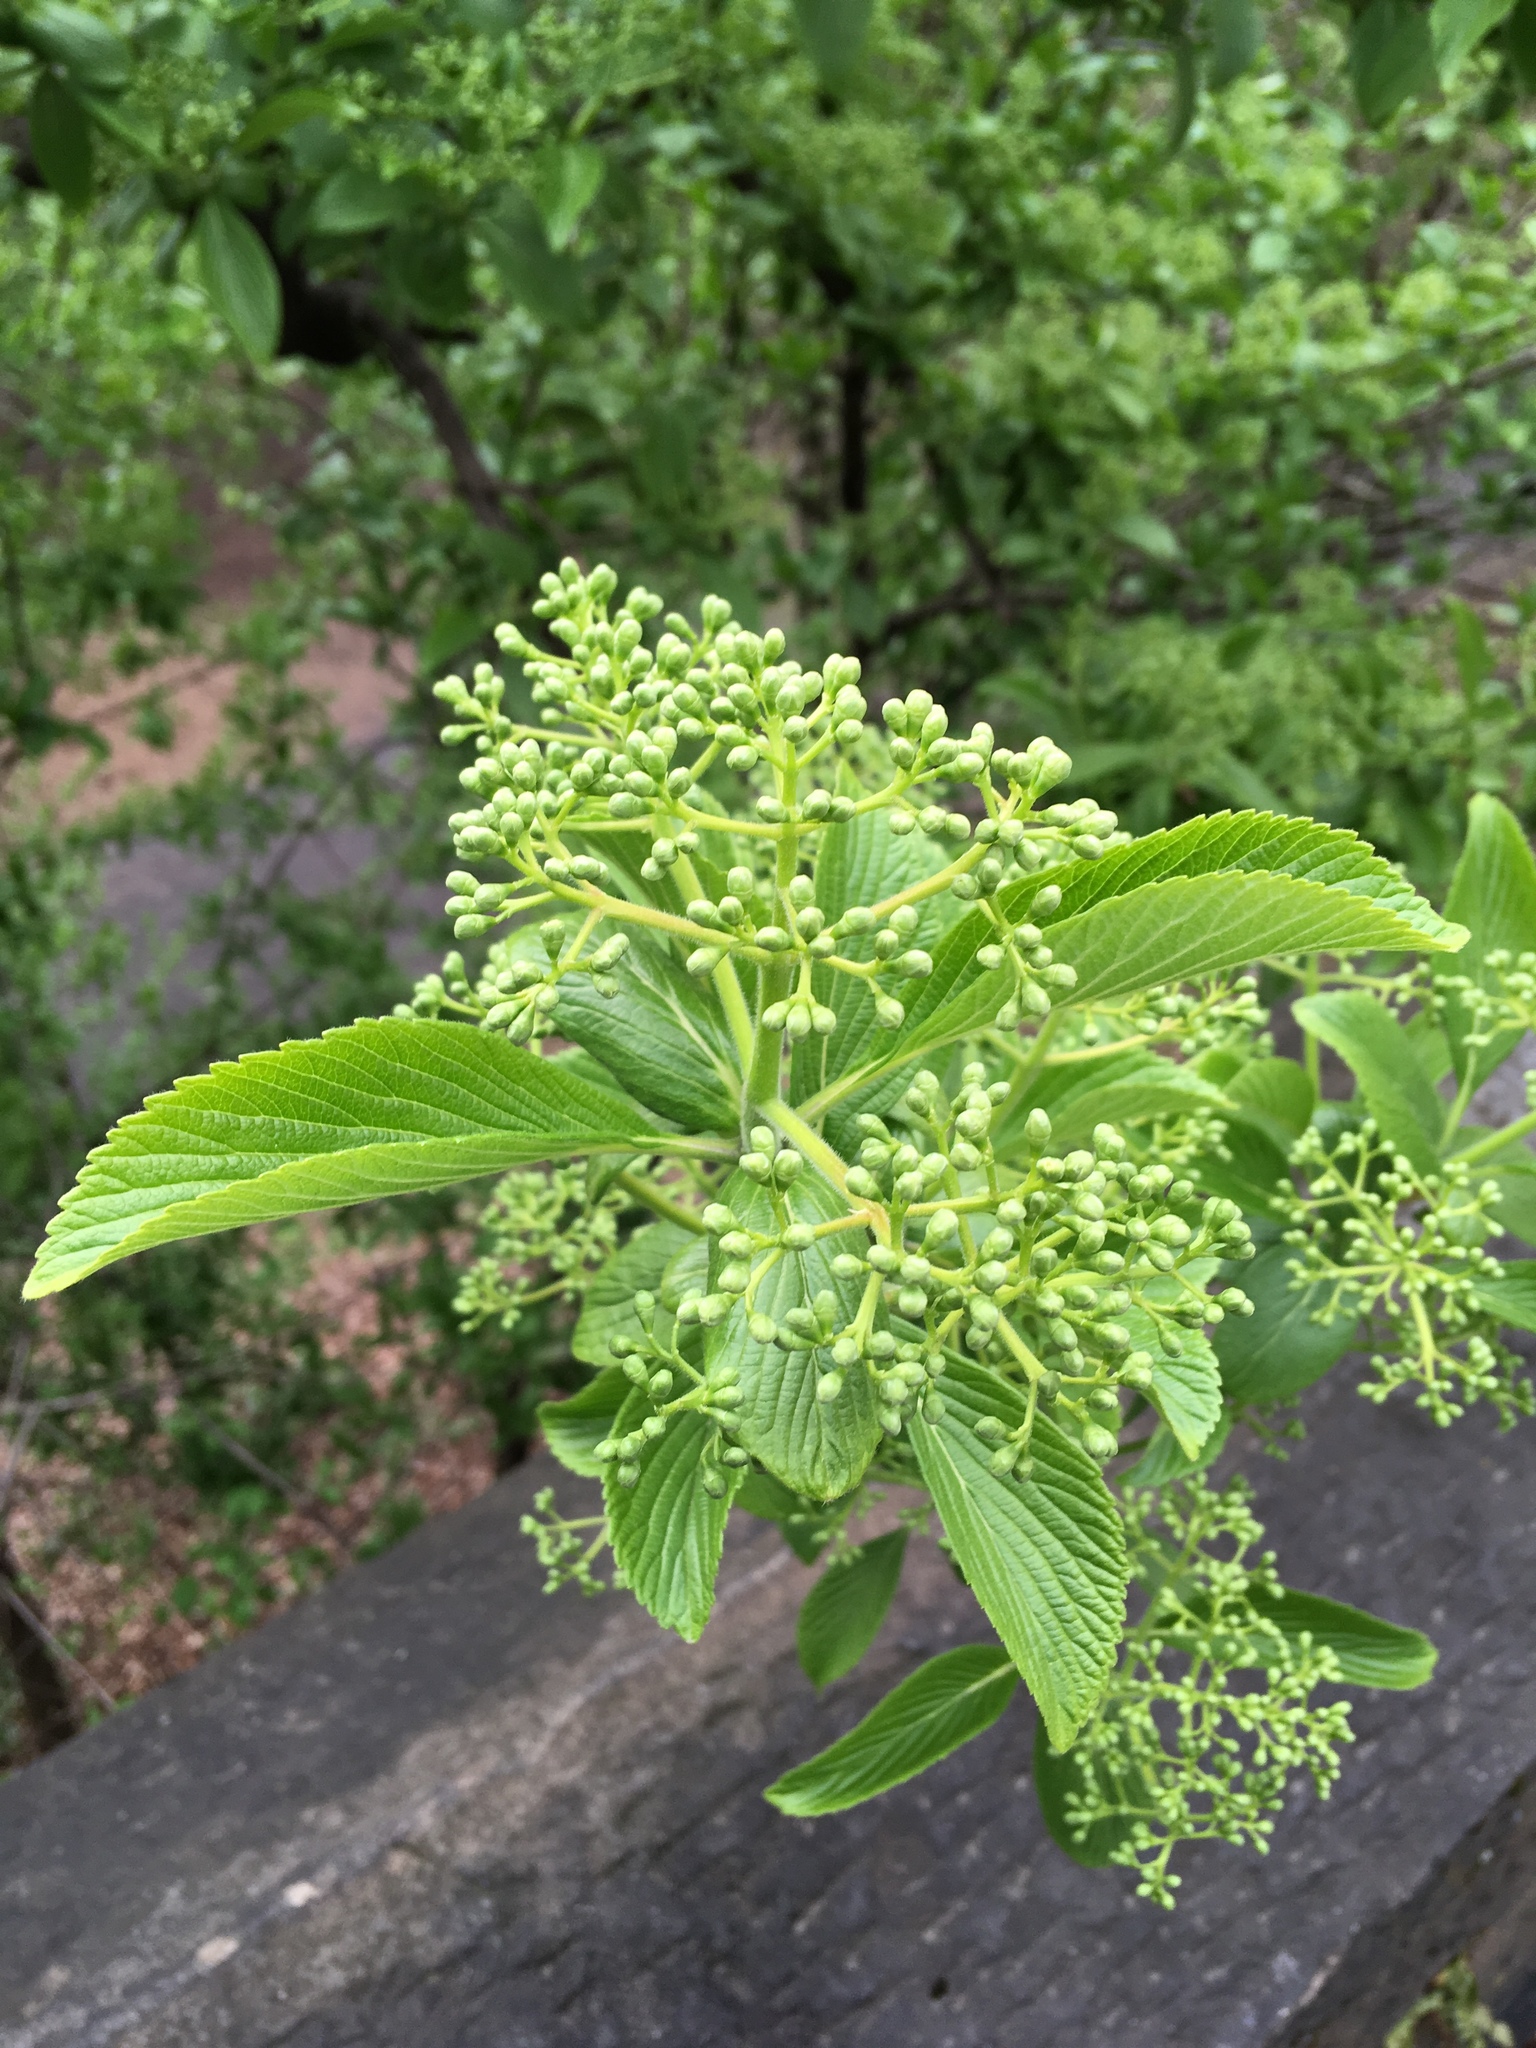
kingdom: Plantae
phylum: Tracheophyta
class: Magnoliopsida
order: Dipsacales
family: Viburnaceae
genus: Viburnum
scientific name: Viburnum sieboldii
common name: Siebold's arrowwood
